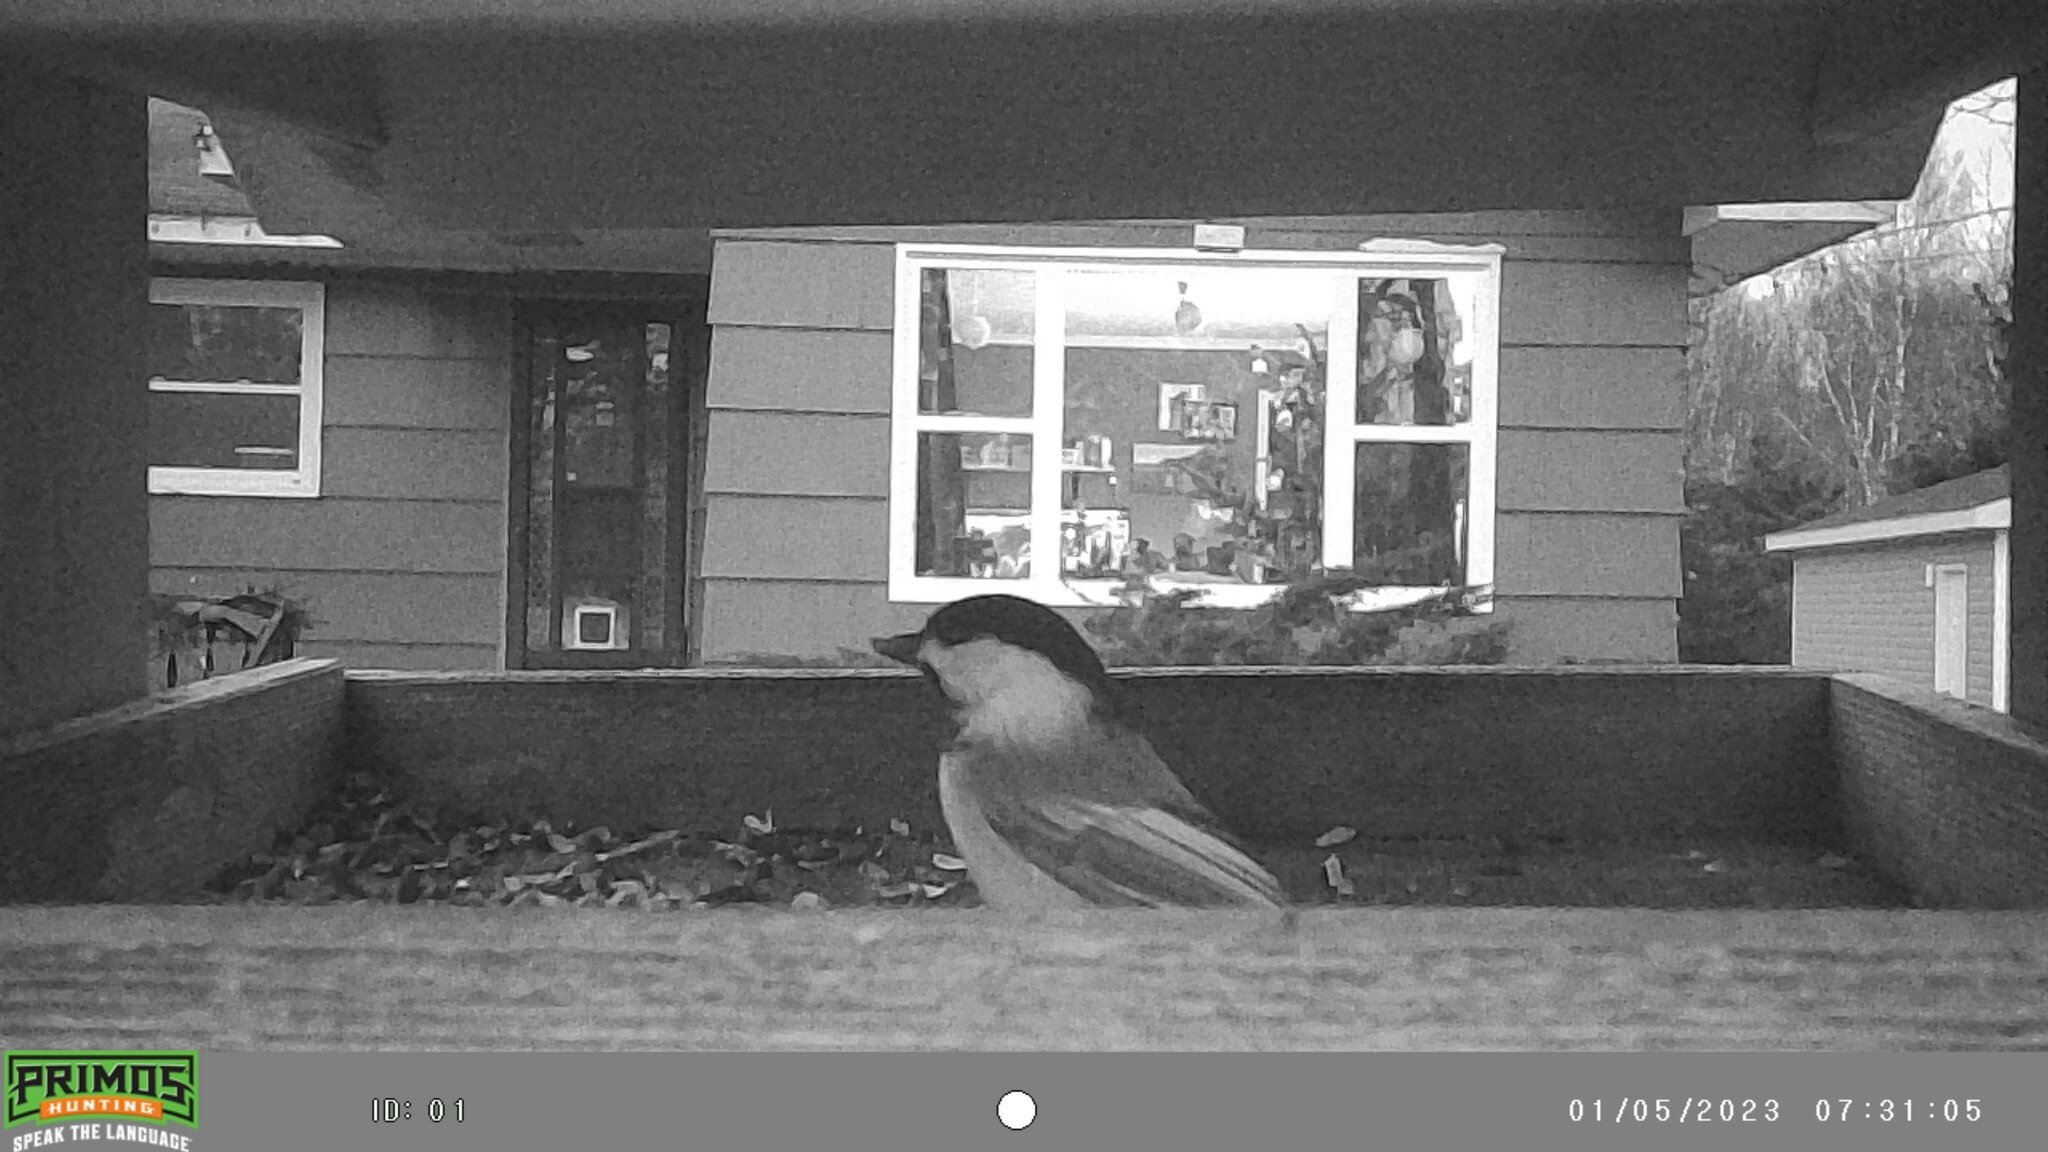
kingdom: Animalia
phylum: Chordata
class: Aves
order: Passeriformes
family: Paridae
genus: Poecile
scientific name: Poecile atricapillus
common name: Black-capped chickadee
